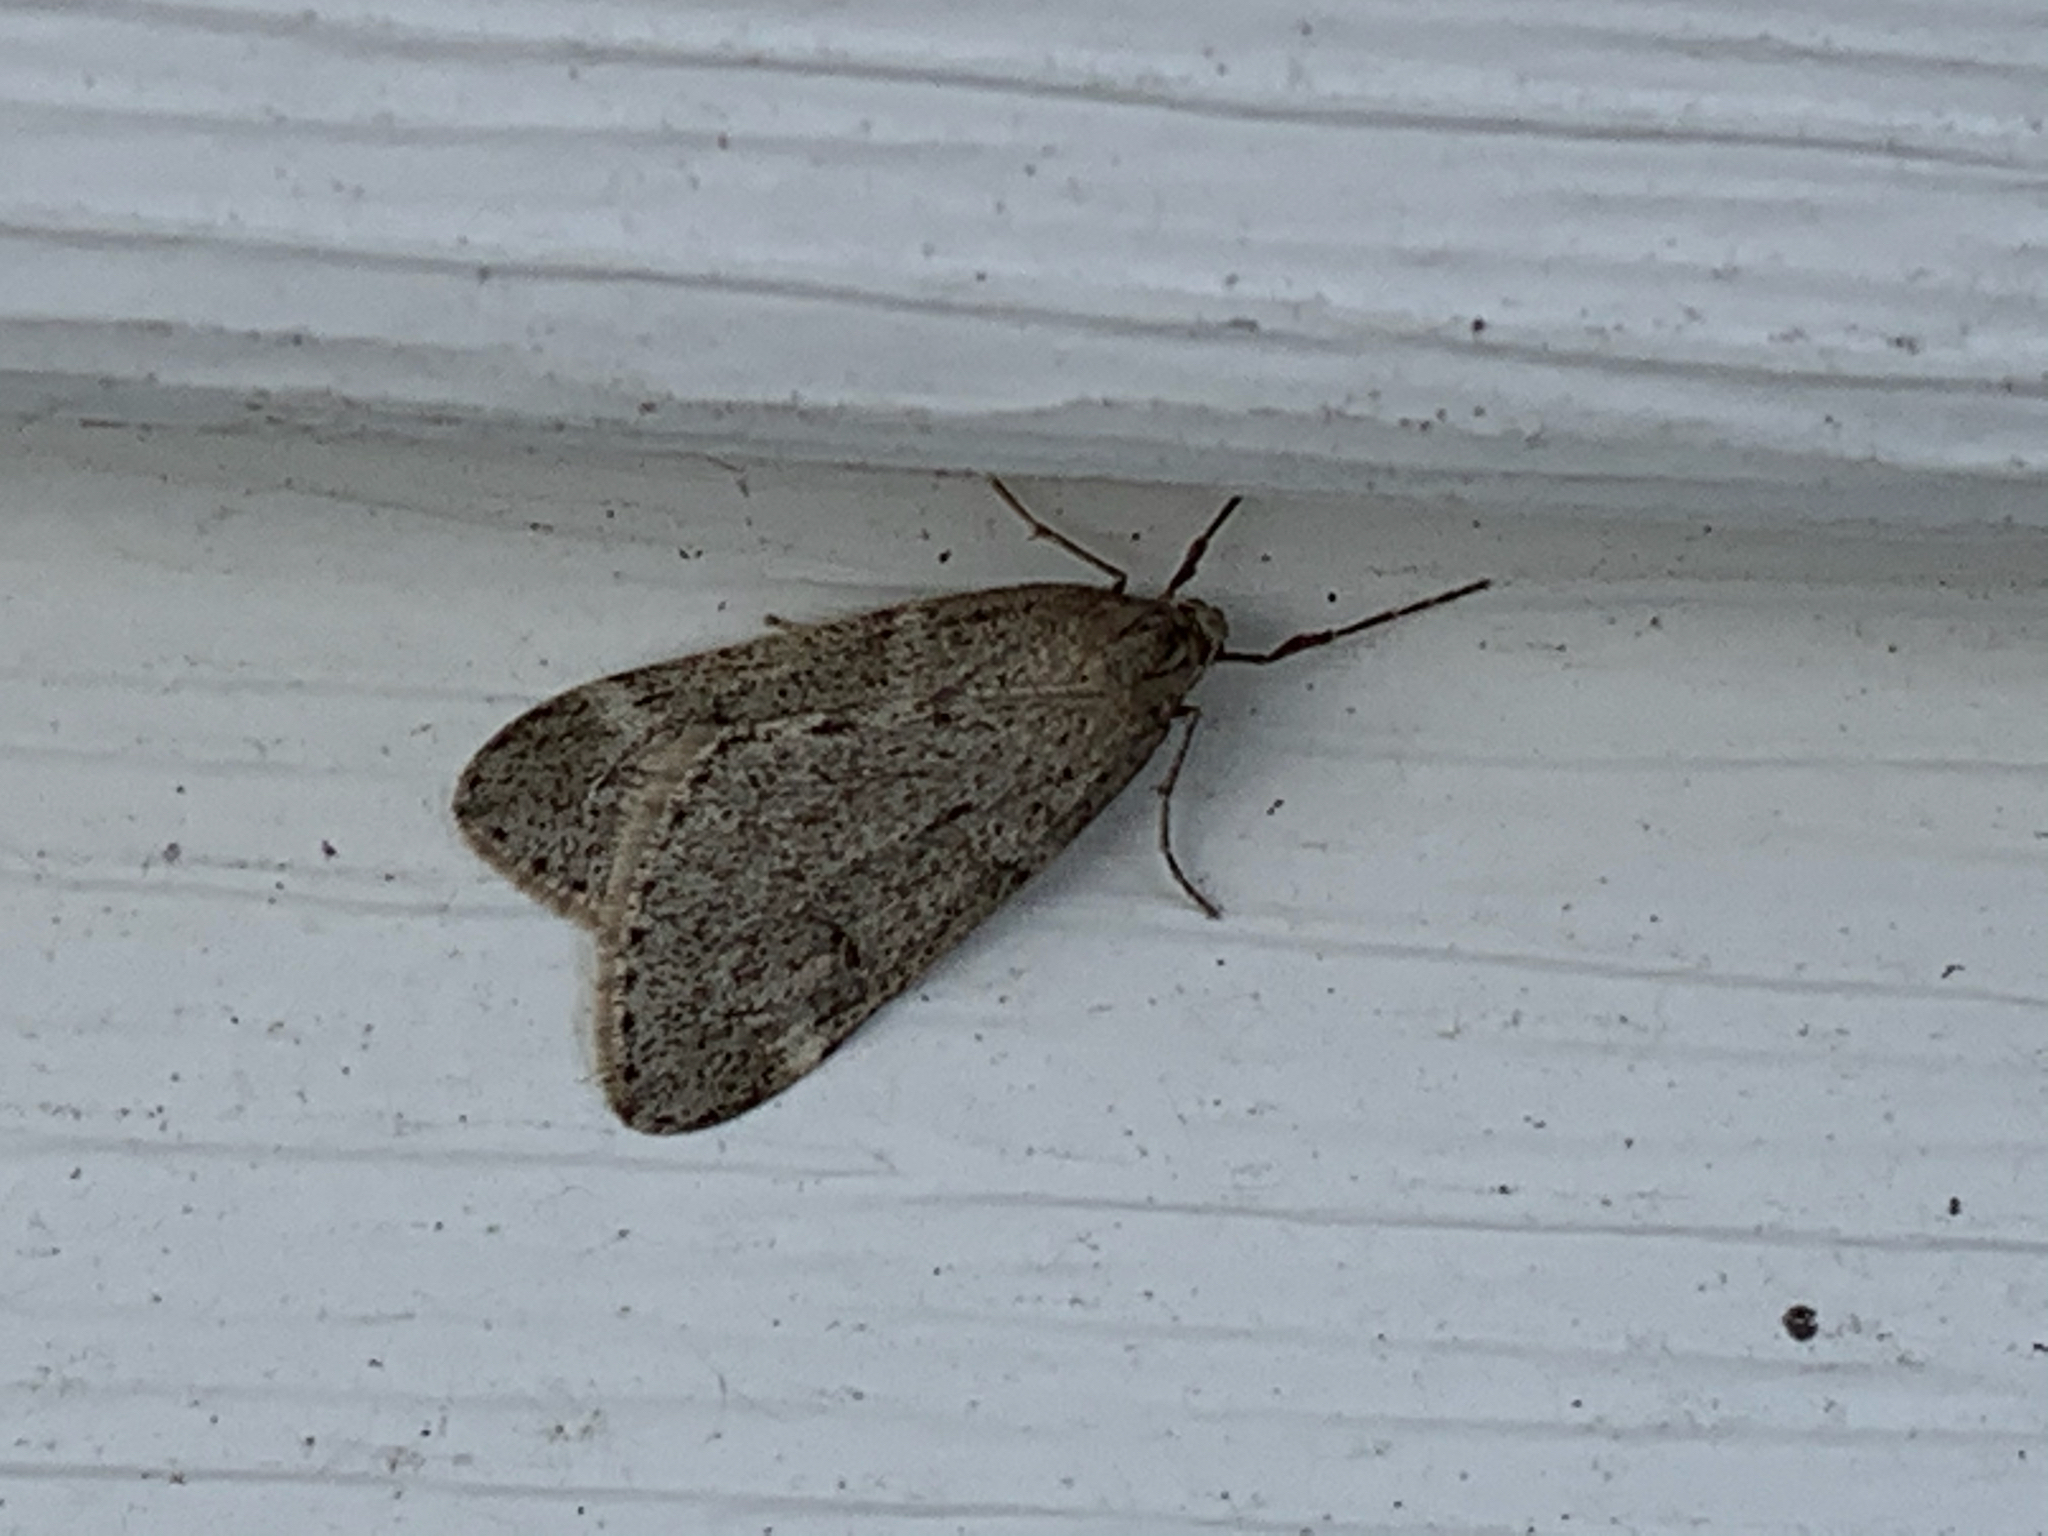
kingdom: Animalia
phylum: Arthropoda
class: Insecta
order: Lepidoptera
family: Geometridae
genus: Alsophila
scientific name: Alsophila pometaria
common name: Fall cankerworm
